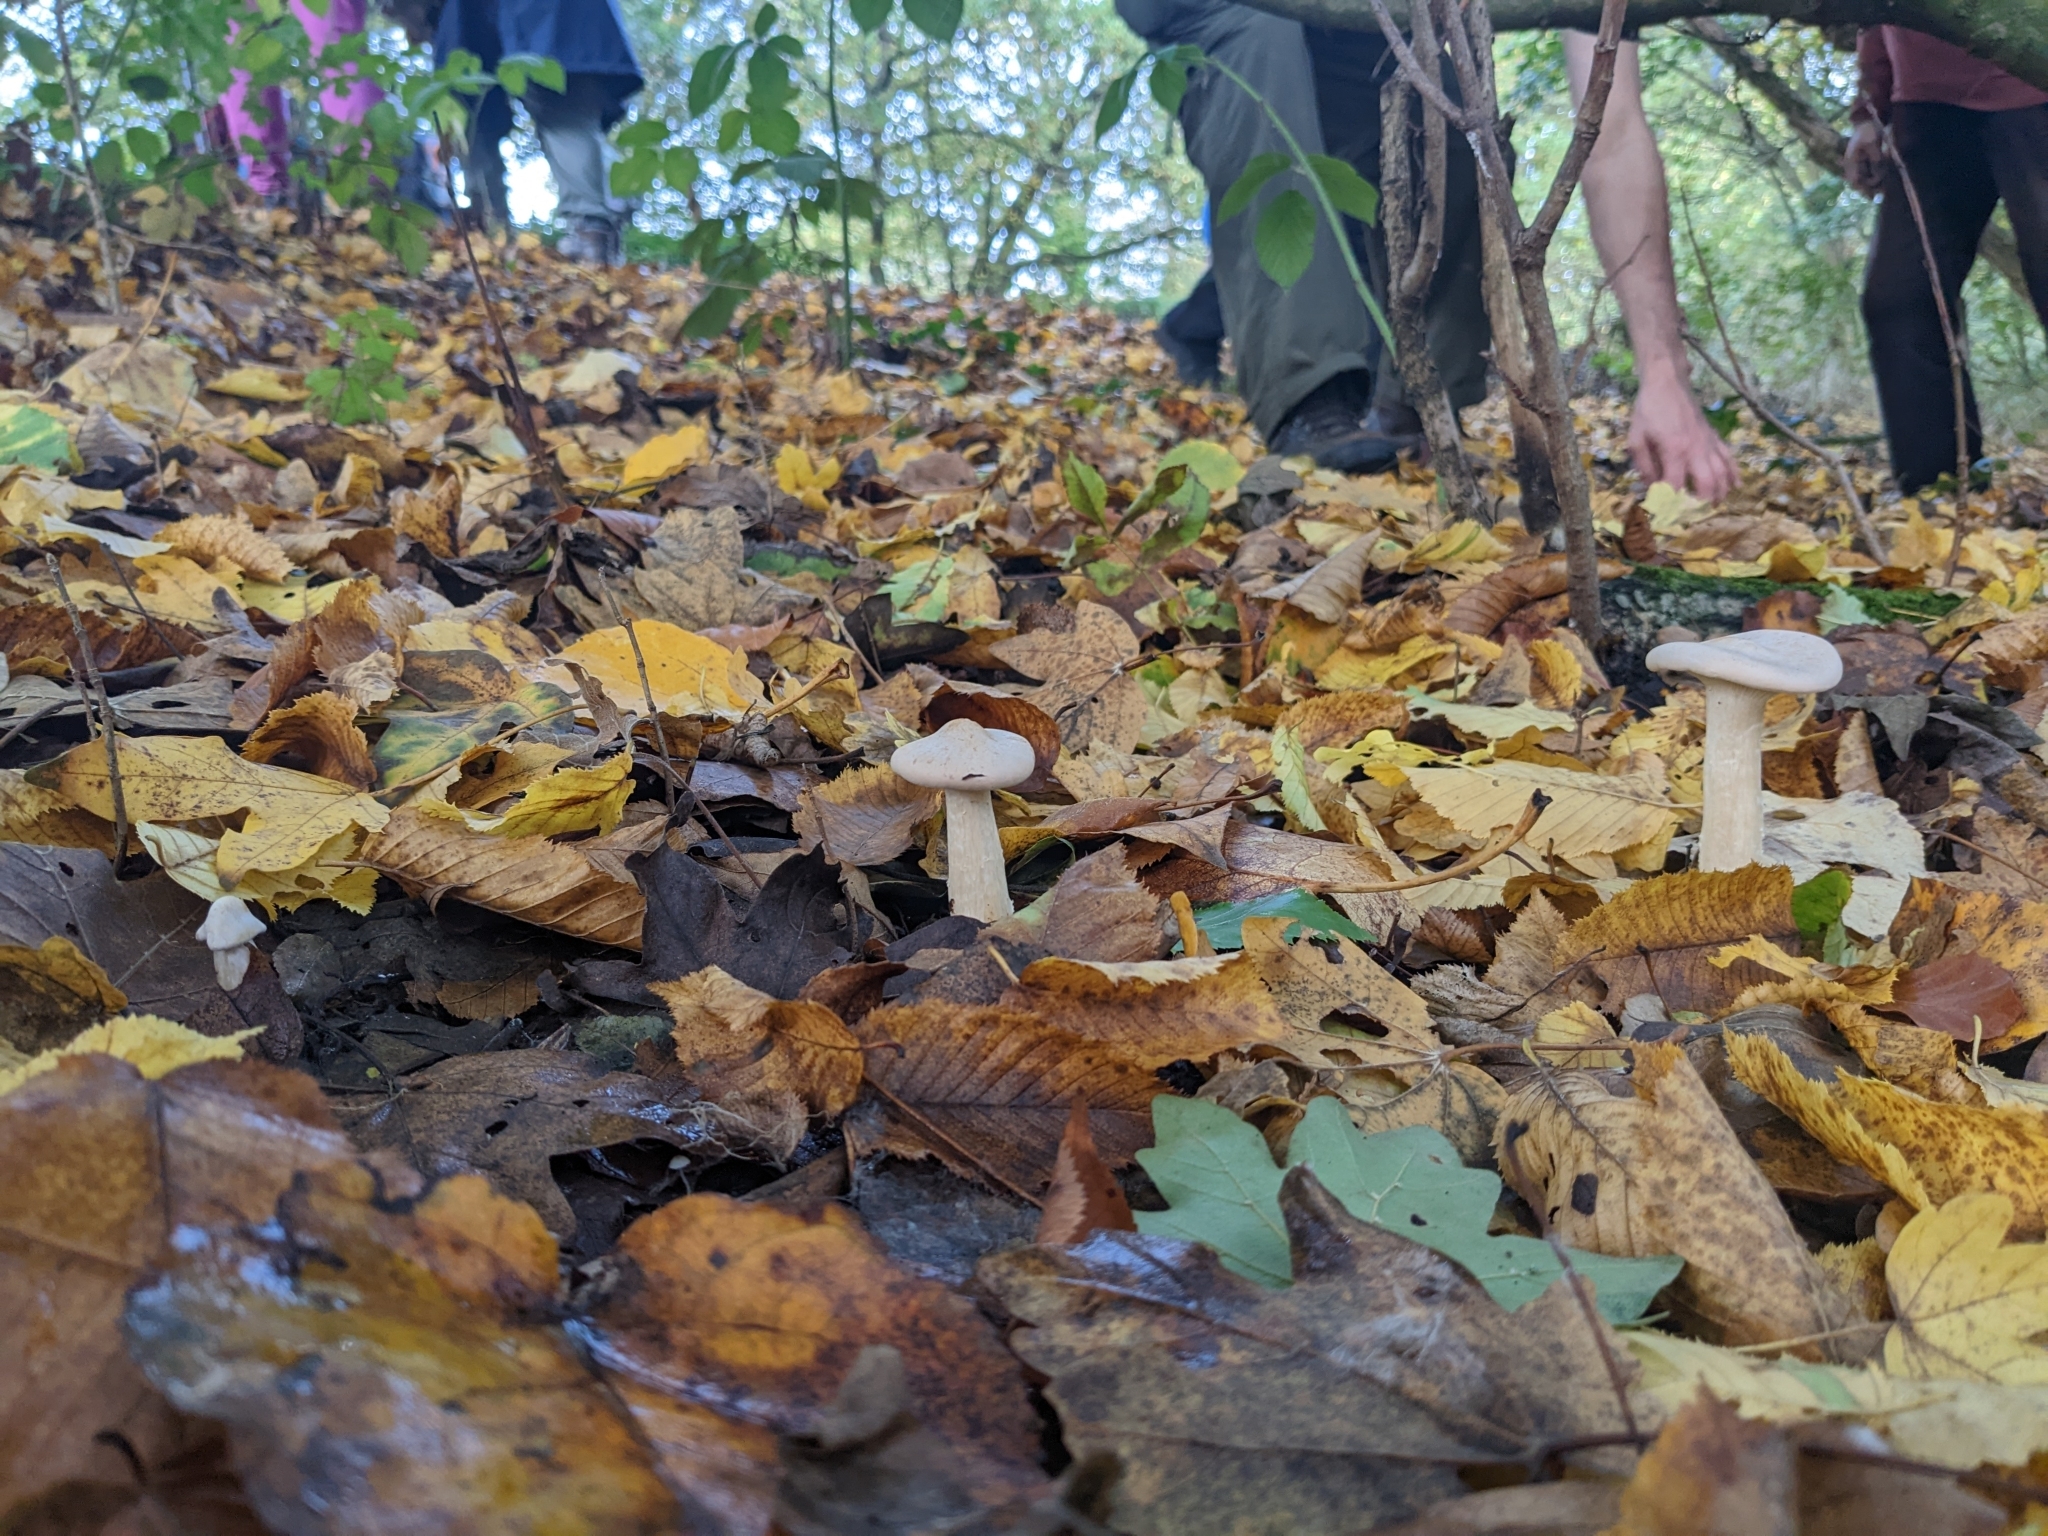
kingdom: Fungi
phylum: Basidiomycota
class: Agaricomycetes
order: Agaricales
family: Tricholomataceae
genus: Infundibulicybe
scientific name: Infundibulicybe geotropa
